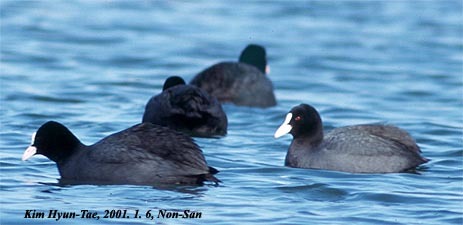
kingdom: Animalia
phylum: Chordata
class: Aves
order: Gruiformes
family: Rallidae
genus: Fulica
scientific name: Fulica atra
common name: Eurasian coot
